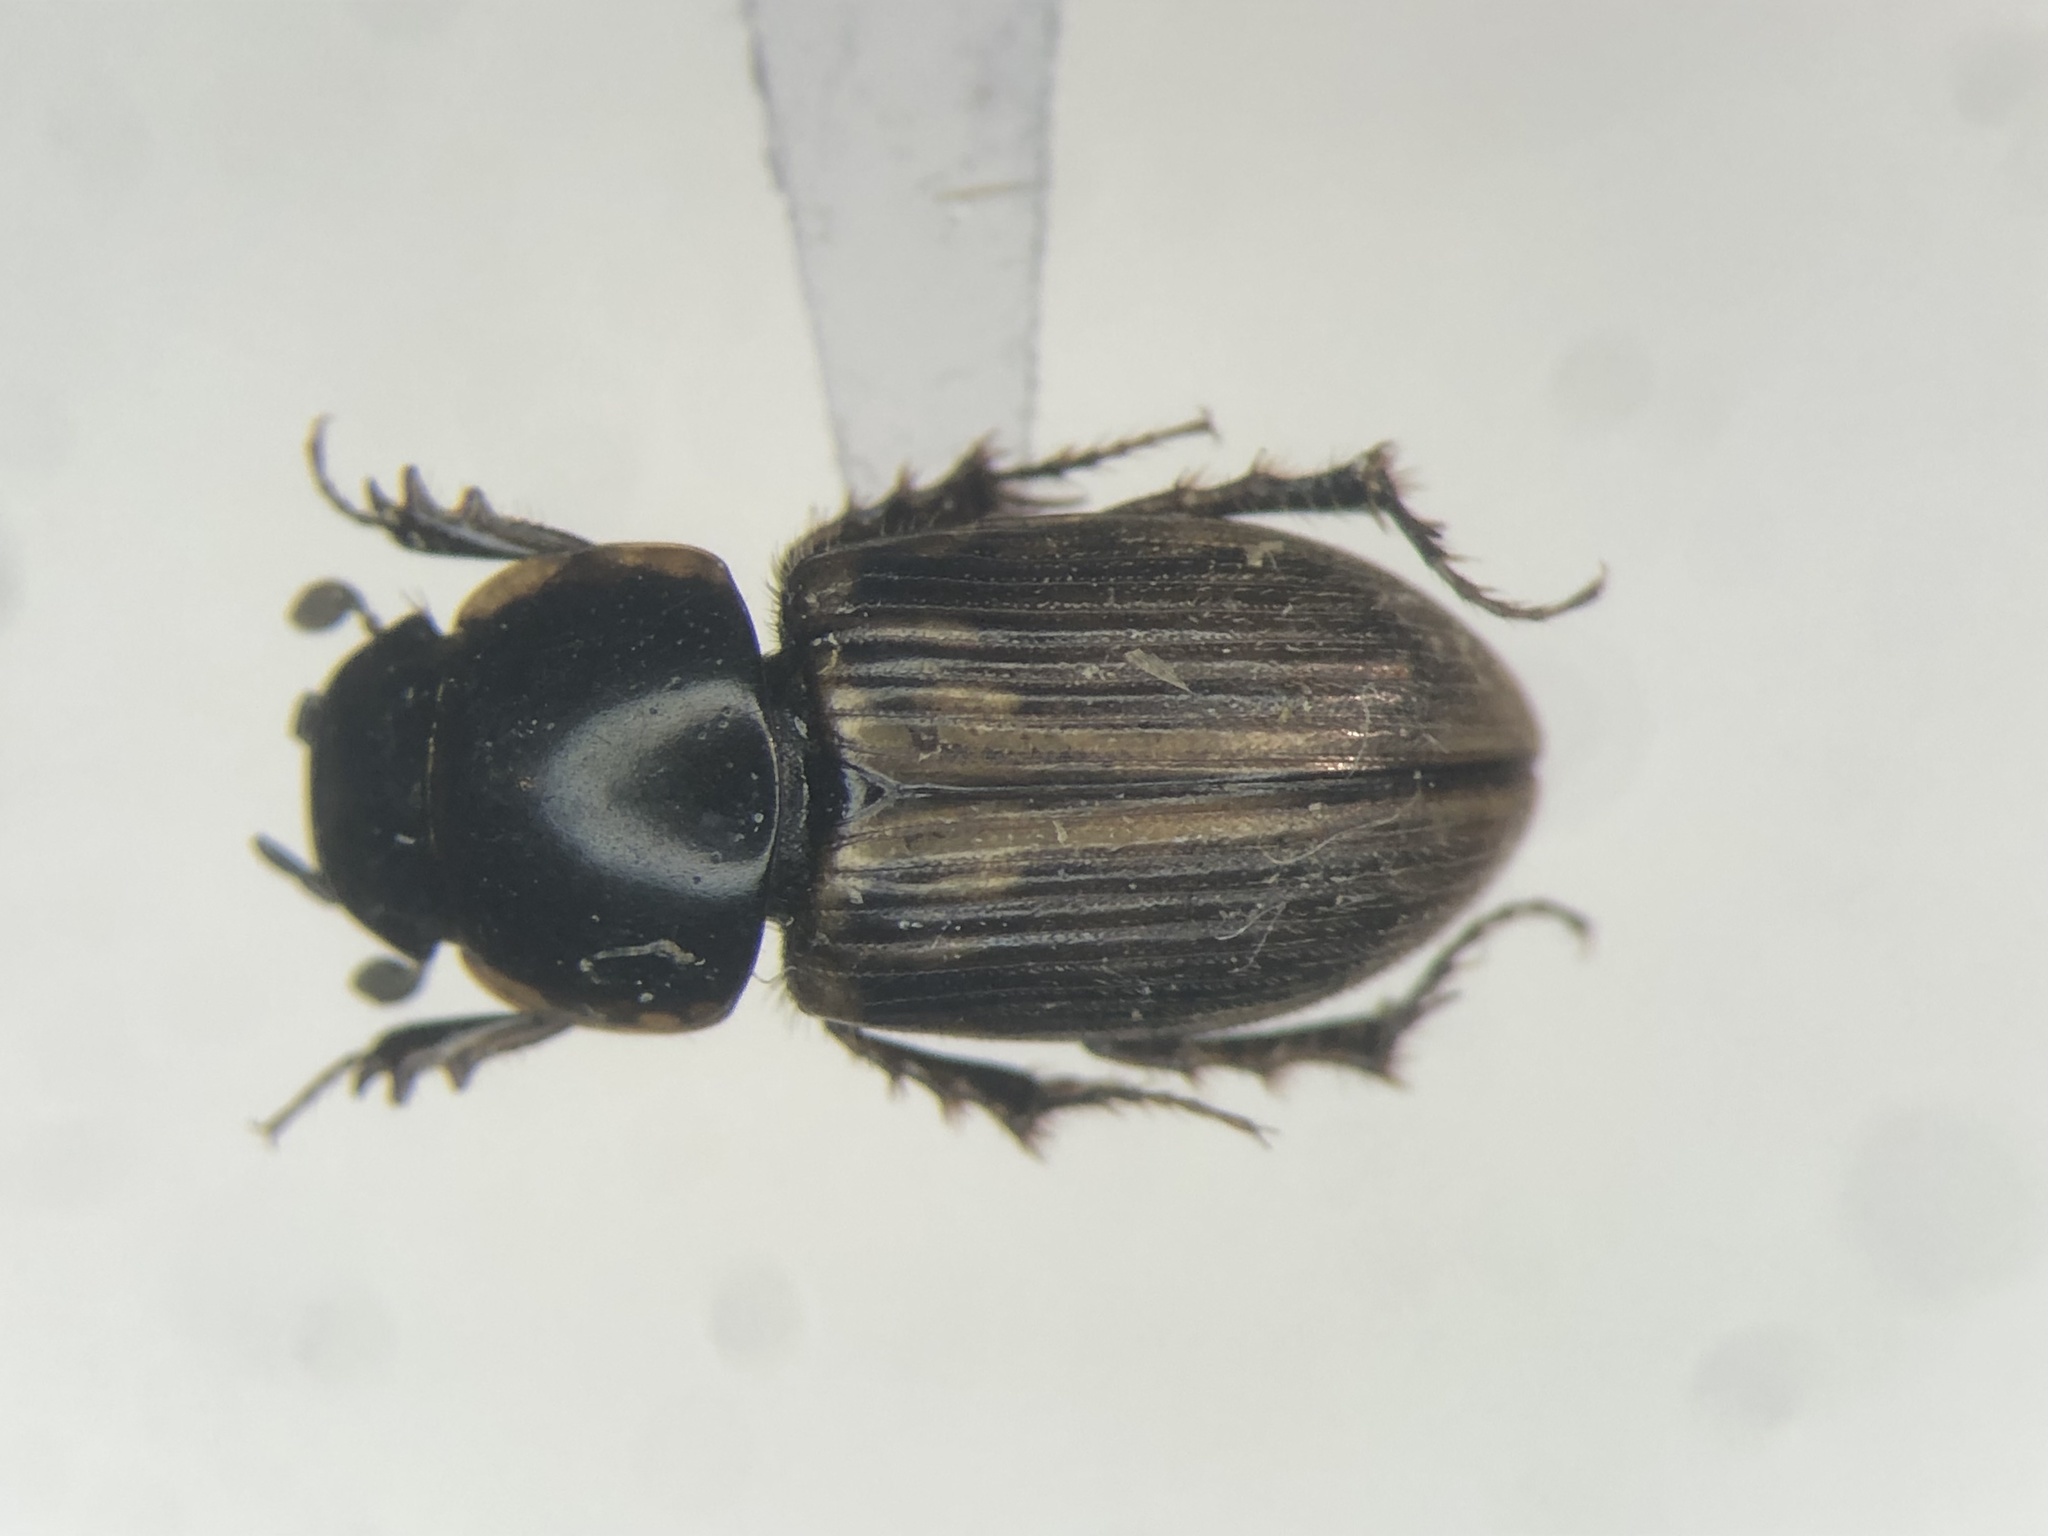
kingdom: Animalia
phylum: Arthropoda
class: Insecta
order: Coleoptera
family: Scarabaeidae
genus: Melinopterus
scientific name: Melinopterus prodromus
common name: Spring small dung beetle
